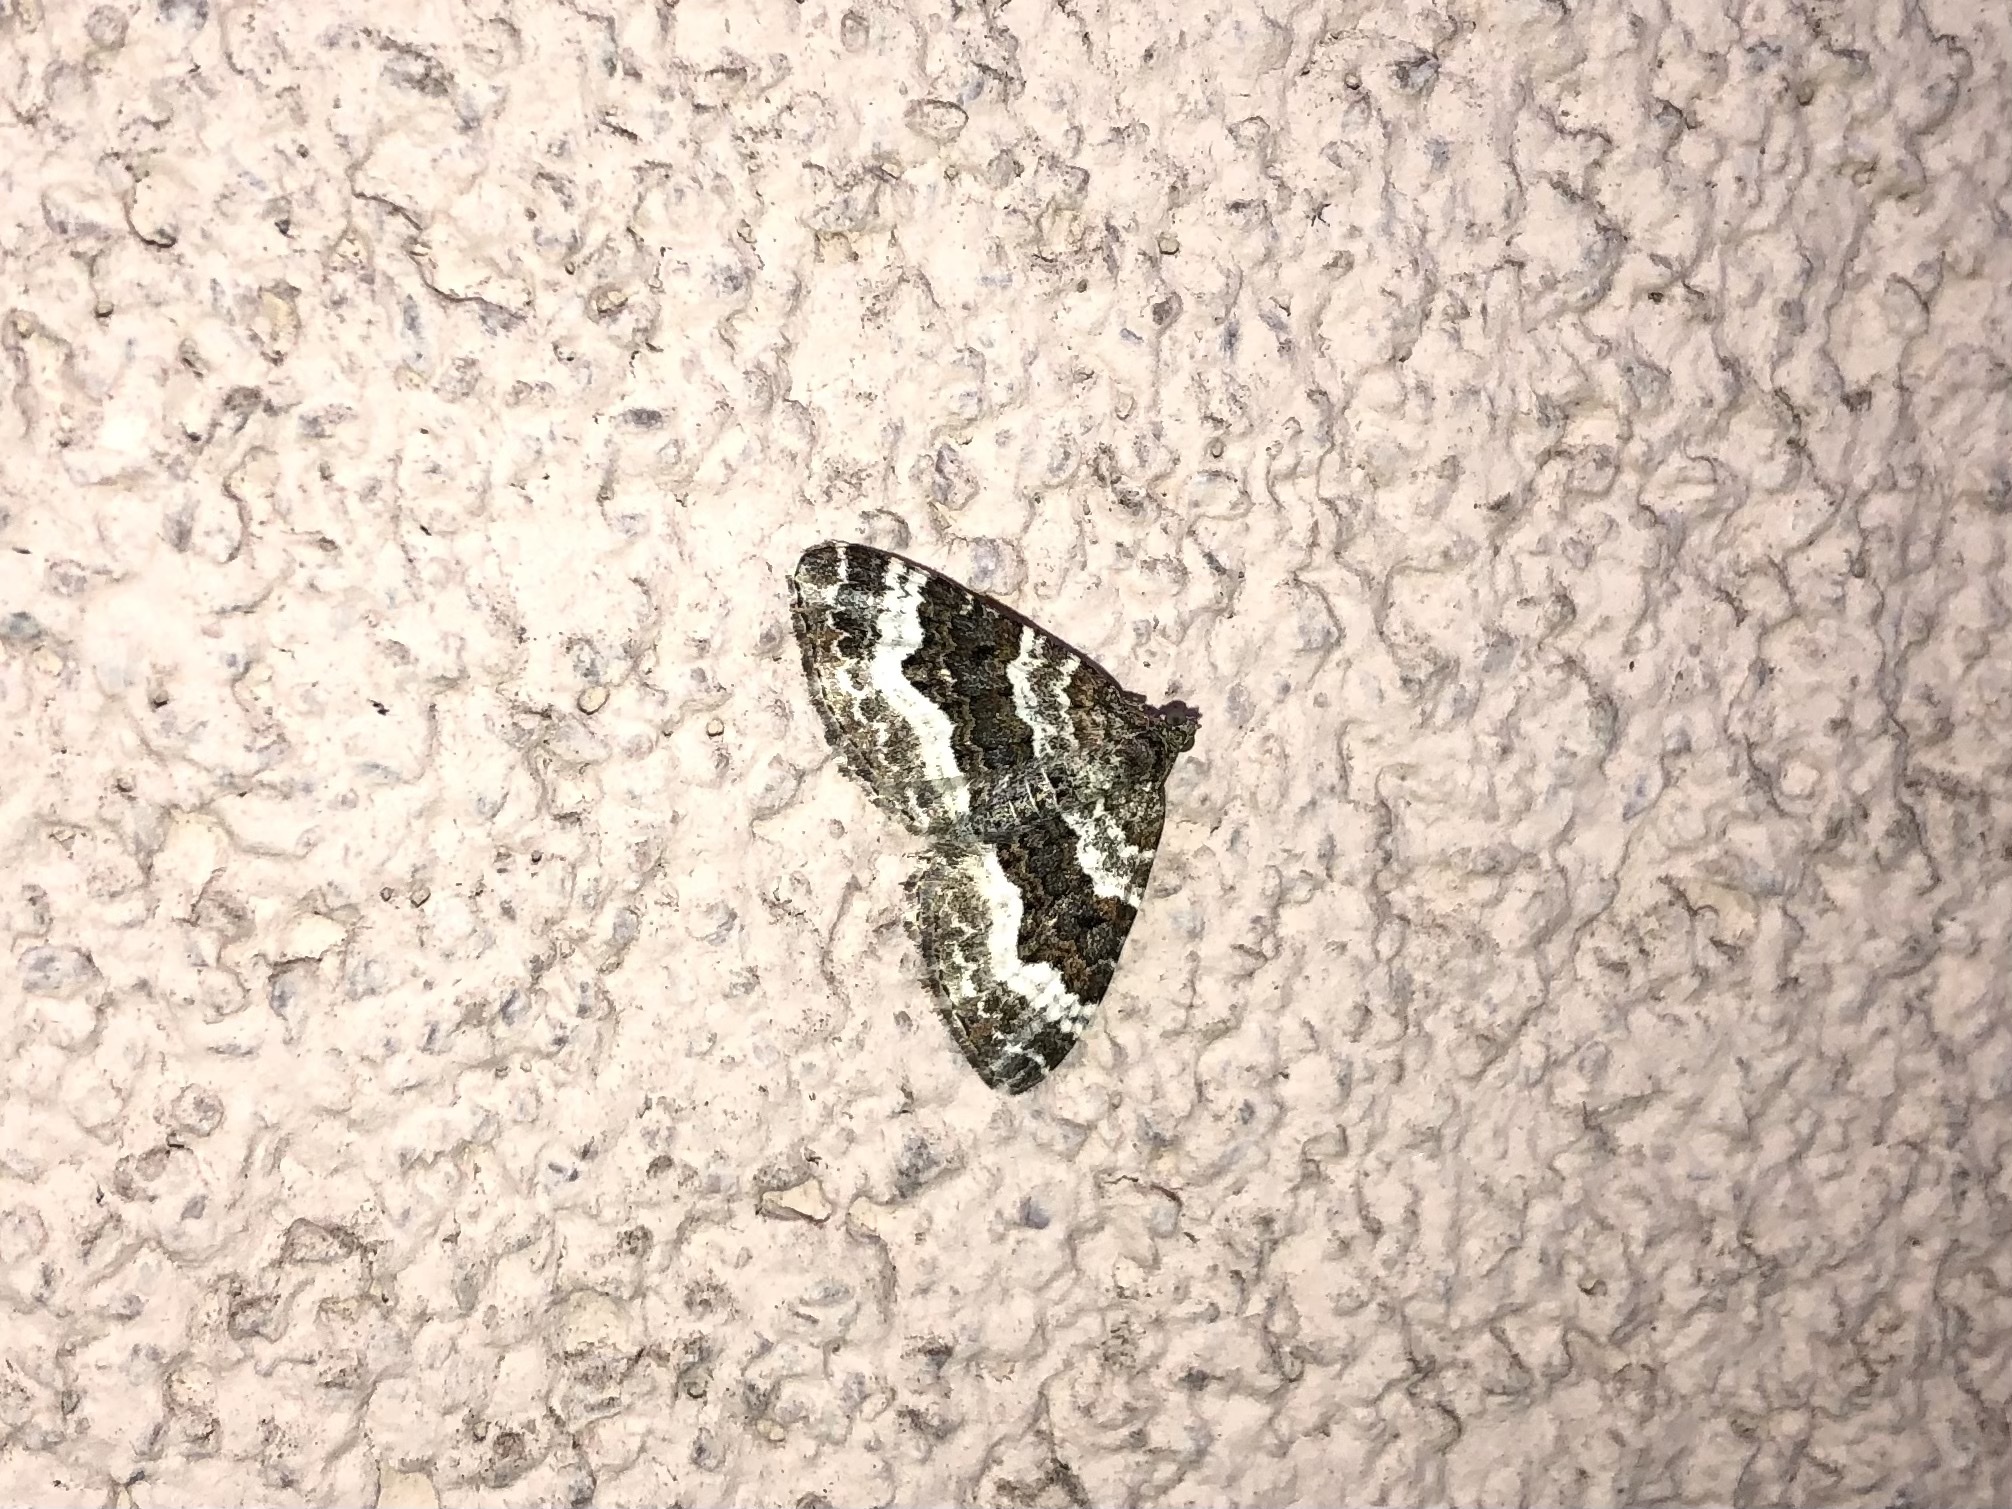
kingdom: Animalia
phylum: Arthropoda
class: Insecta
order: Lepidoptera
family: Geometridae
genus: Epirrhoe
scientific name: Epirrhoe alternata
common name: Common carpet
